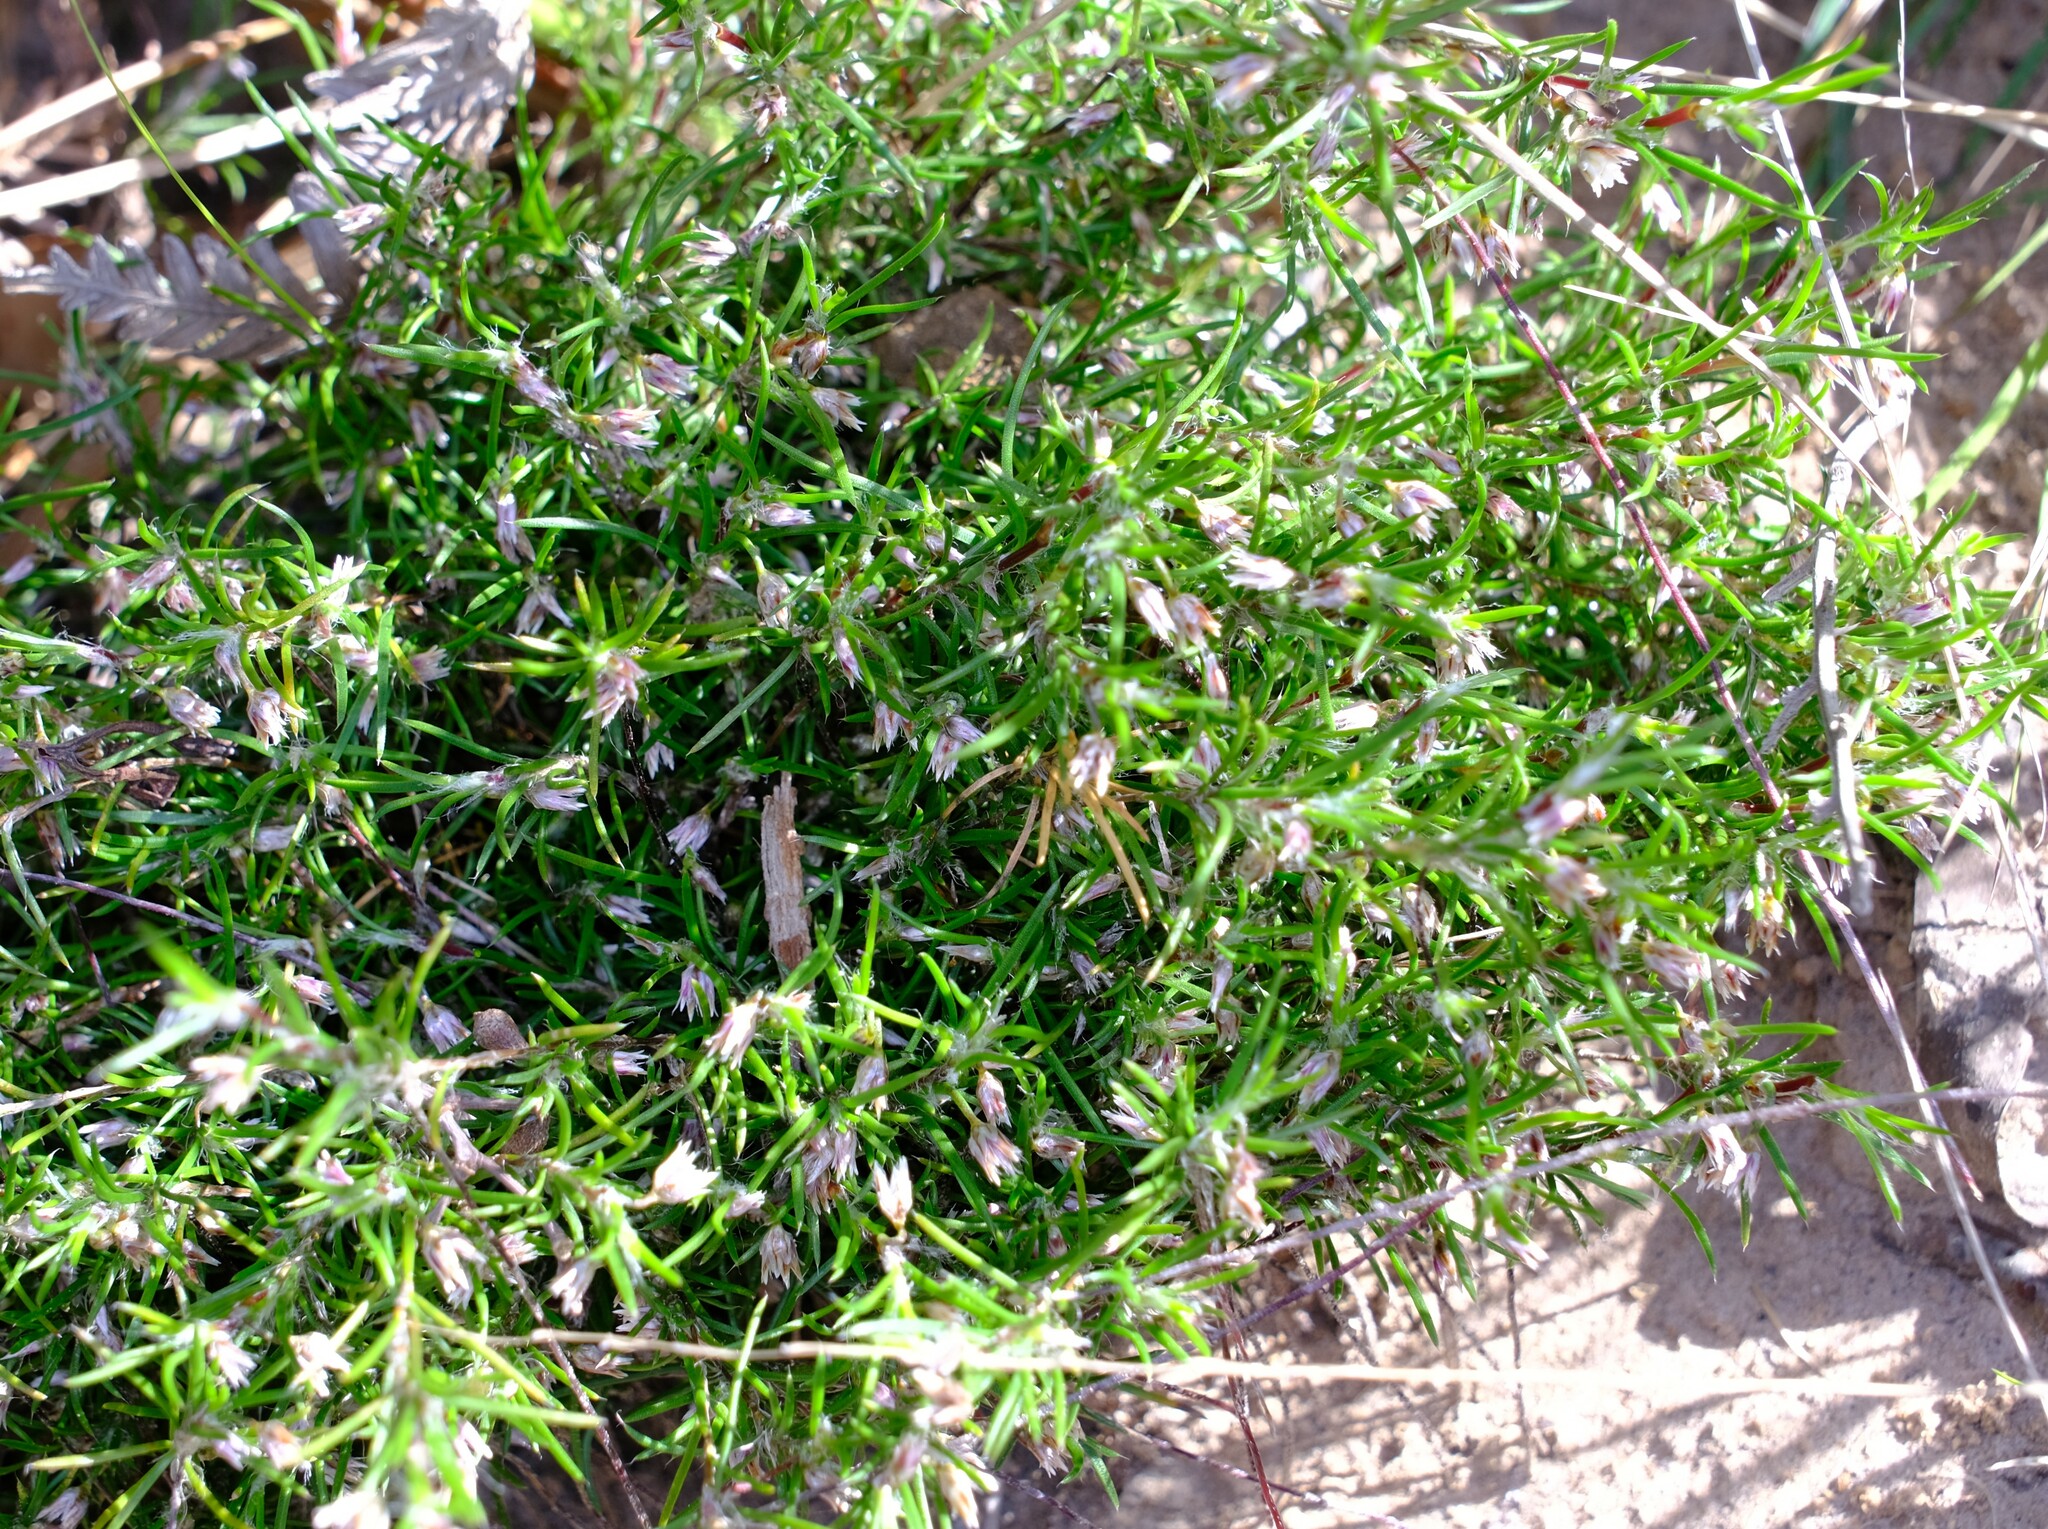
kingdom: Plantae
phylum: Tracheophyta
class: Liliopsida
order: Asparagales
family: Asparagaceae
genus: Laxmannia
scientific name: Laxmannia orientalis
